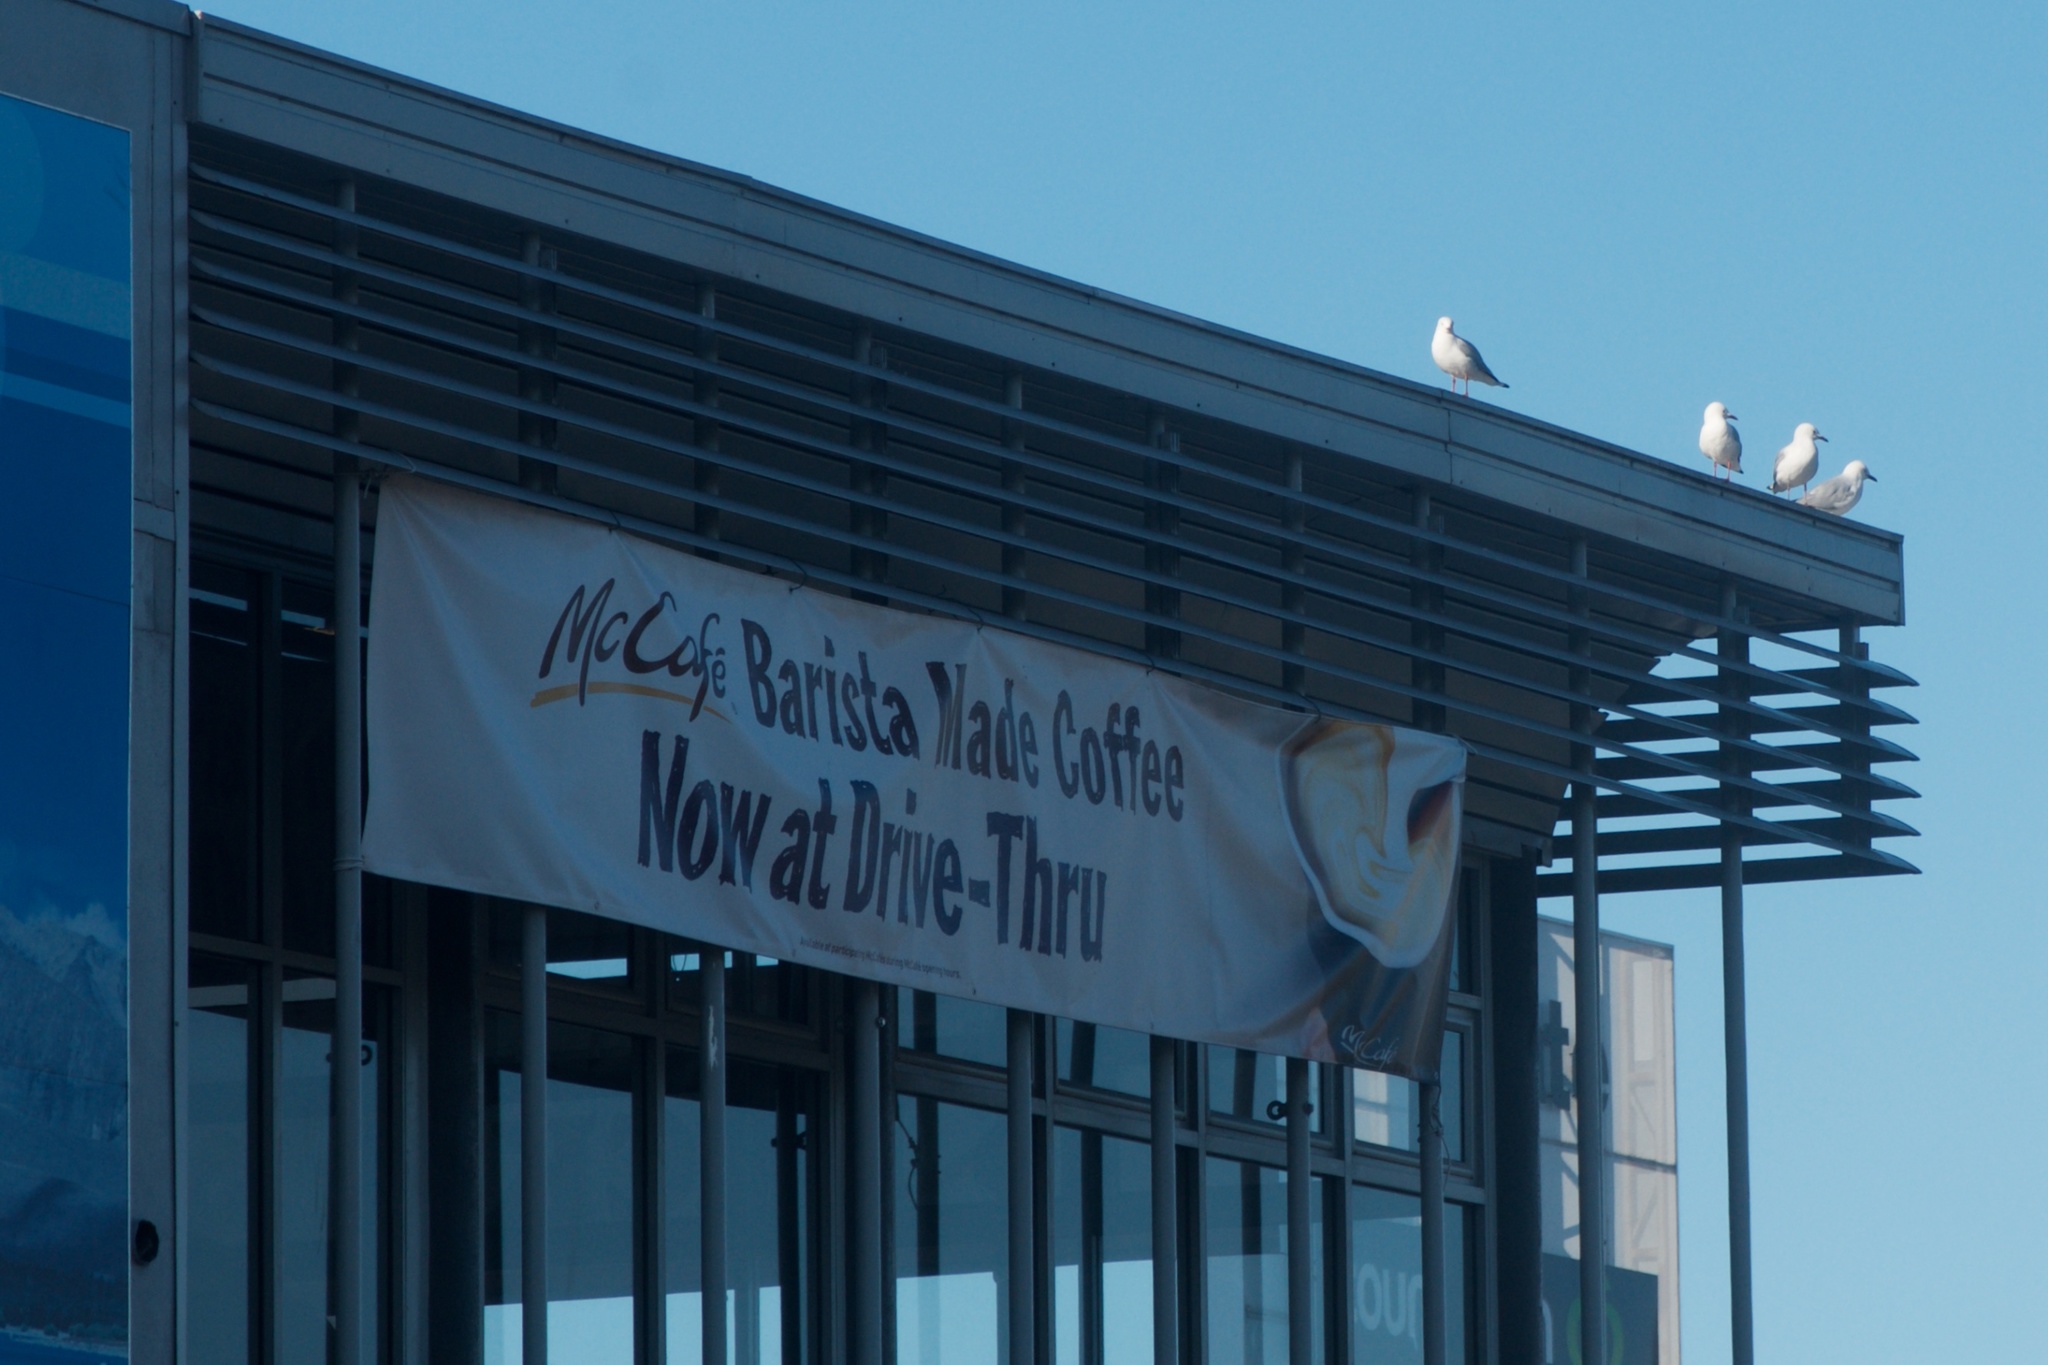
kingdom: Animalia
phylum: Chordata
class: Aves
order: Charadriiformes
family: Laridae
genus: Chroicocephalus
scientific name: Chroicocephalus novaehollandiae
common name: Silver gull
